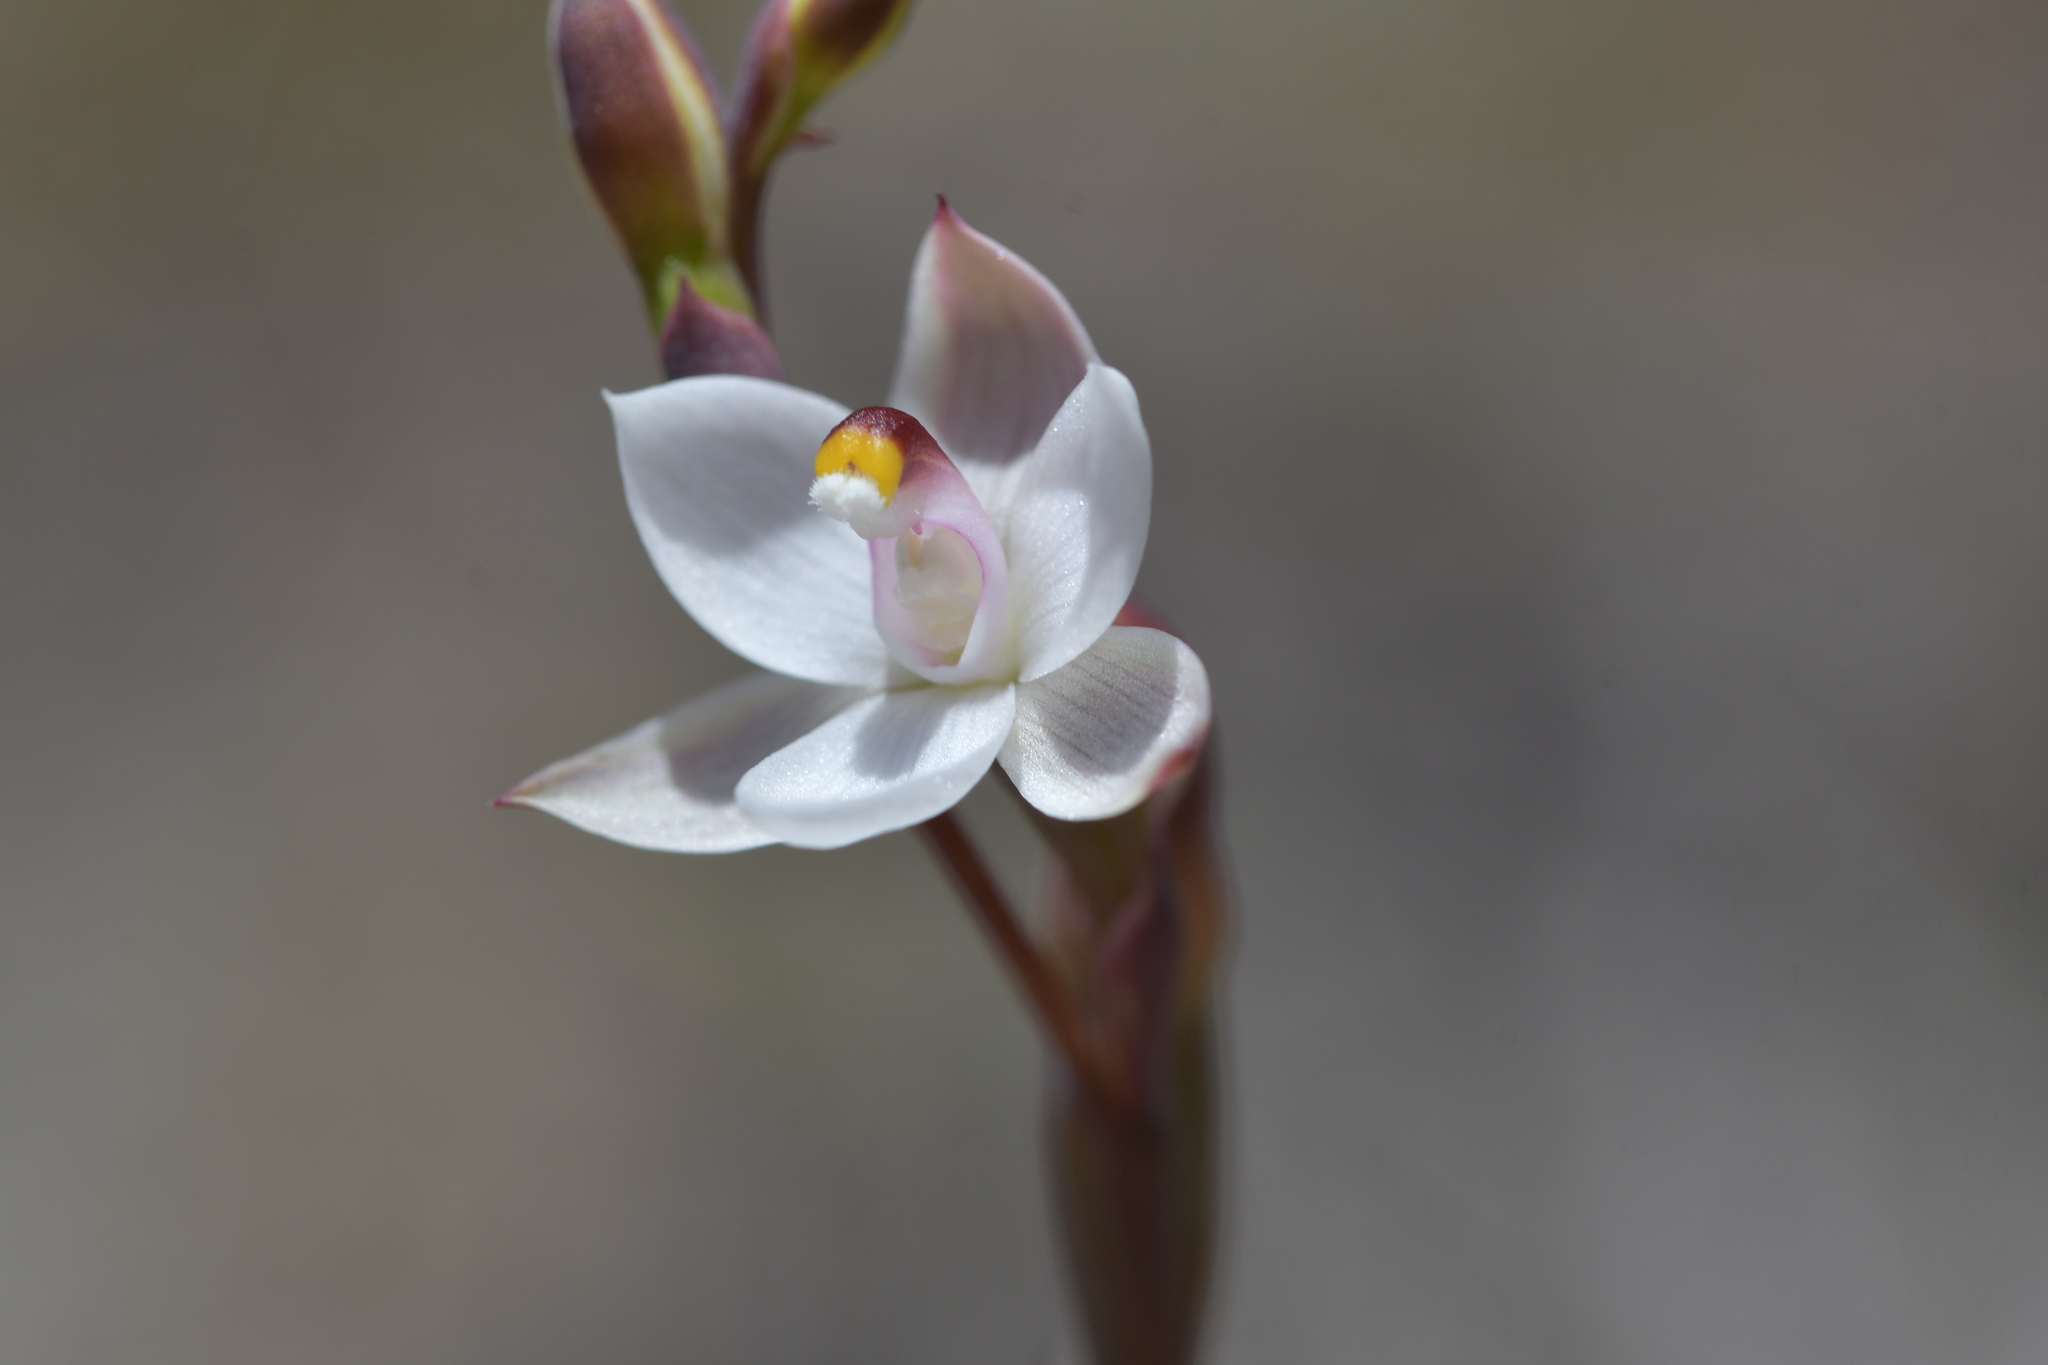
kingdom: Plantae
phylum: Tracheophyta
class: Liliopsida
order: Asparagales
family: Orchidaceae
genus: Thelymitra
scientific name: Thelymitra longifolia
